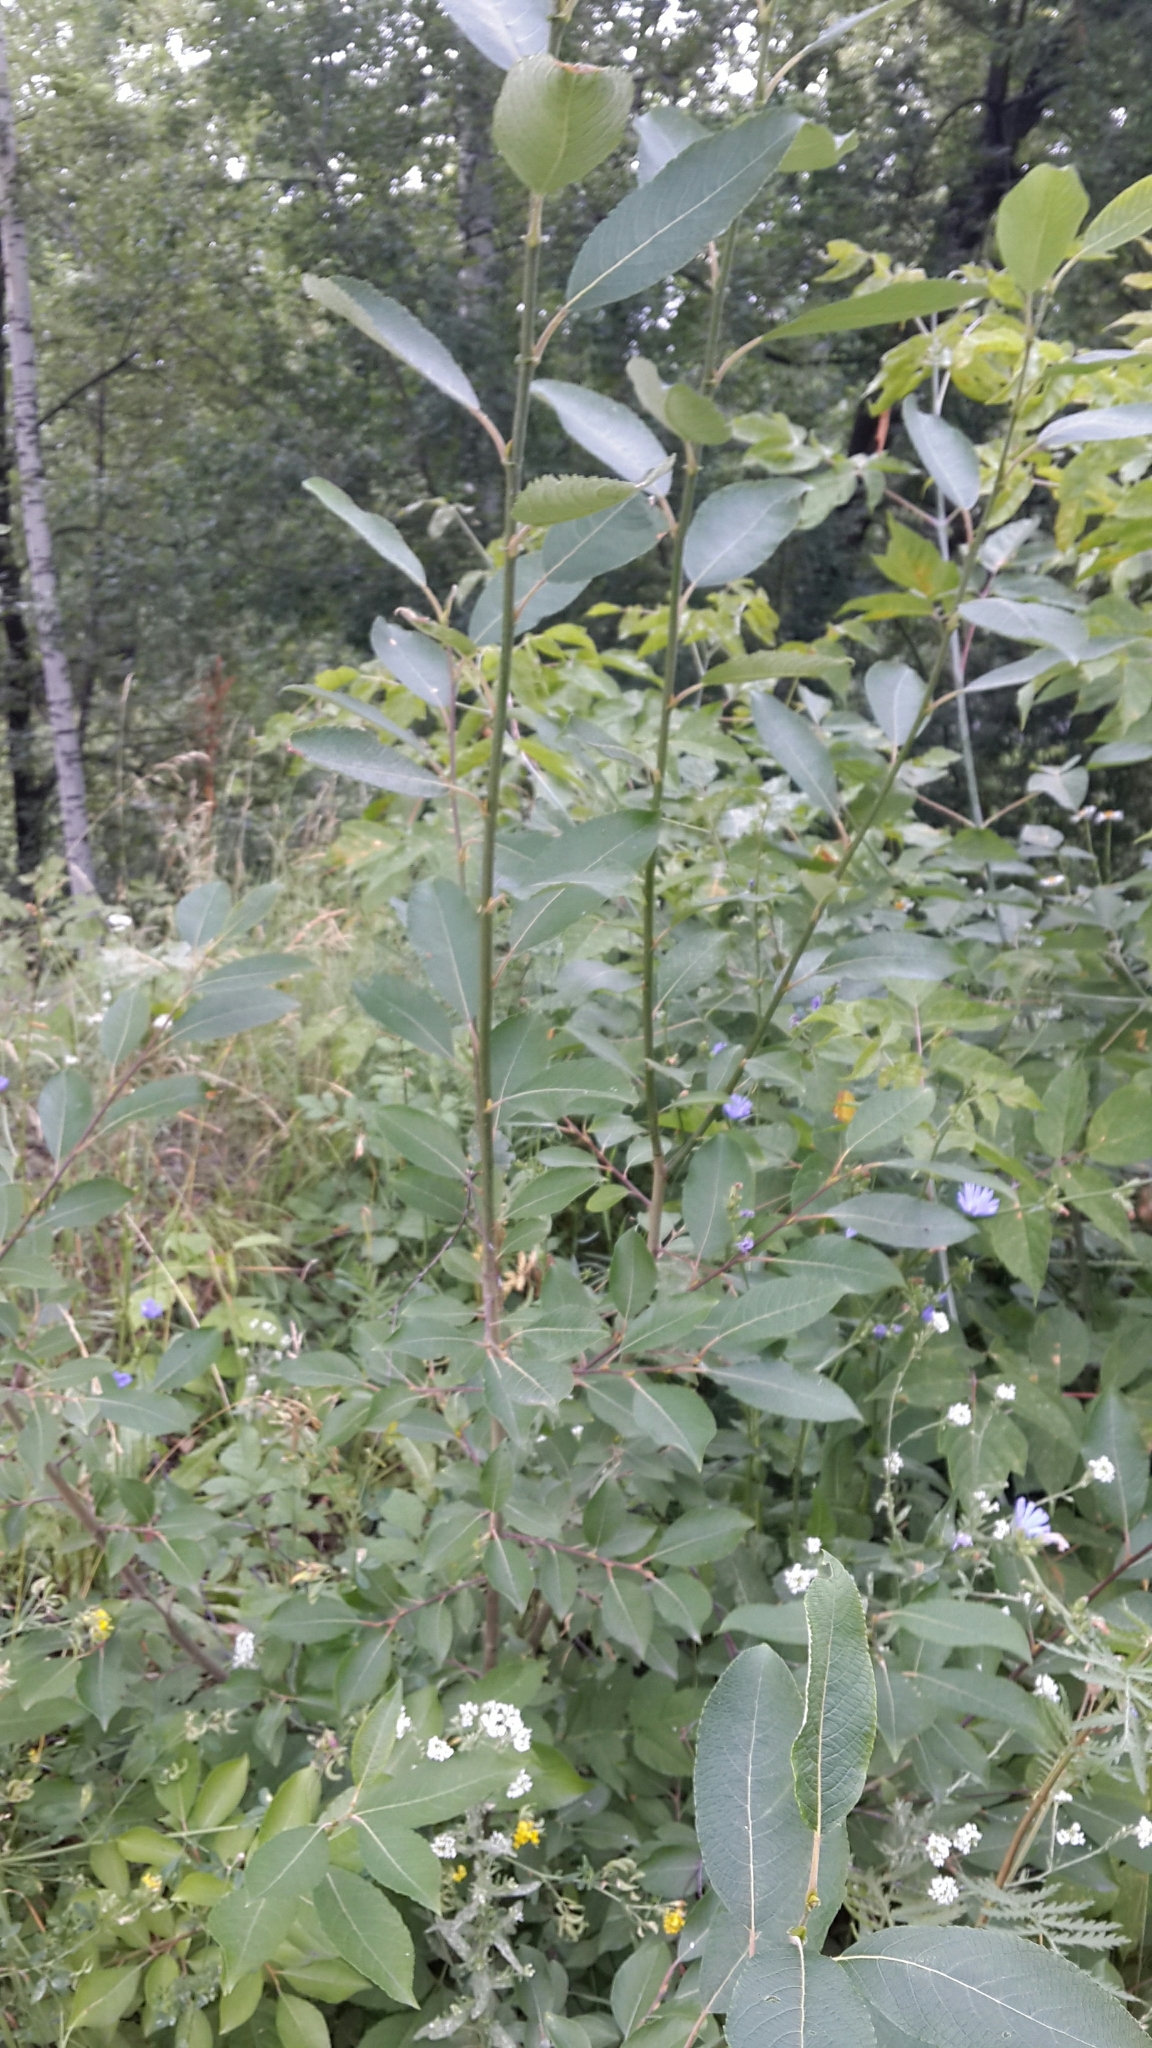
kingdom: Plantae
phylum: Tracheophyta
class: Magnoliopsida
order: Malpighiales
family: Salicaceae
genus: Salix
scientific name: Salix caprea
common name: Goat willow
